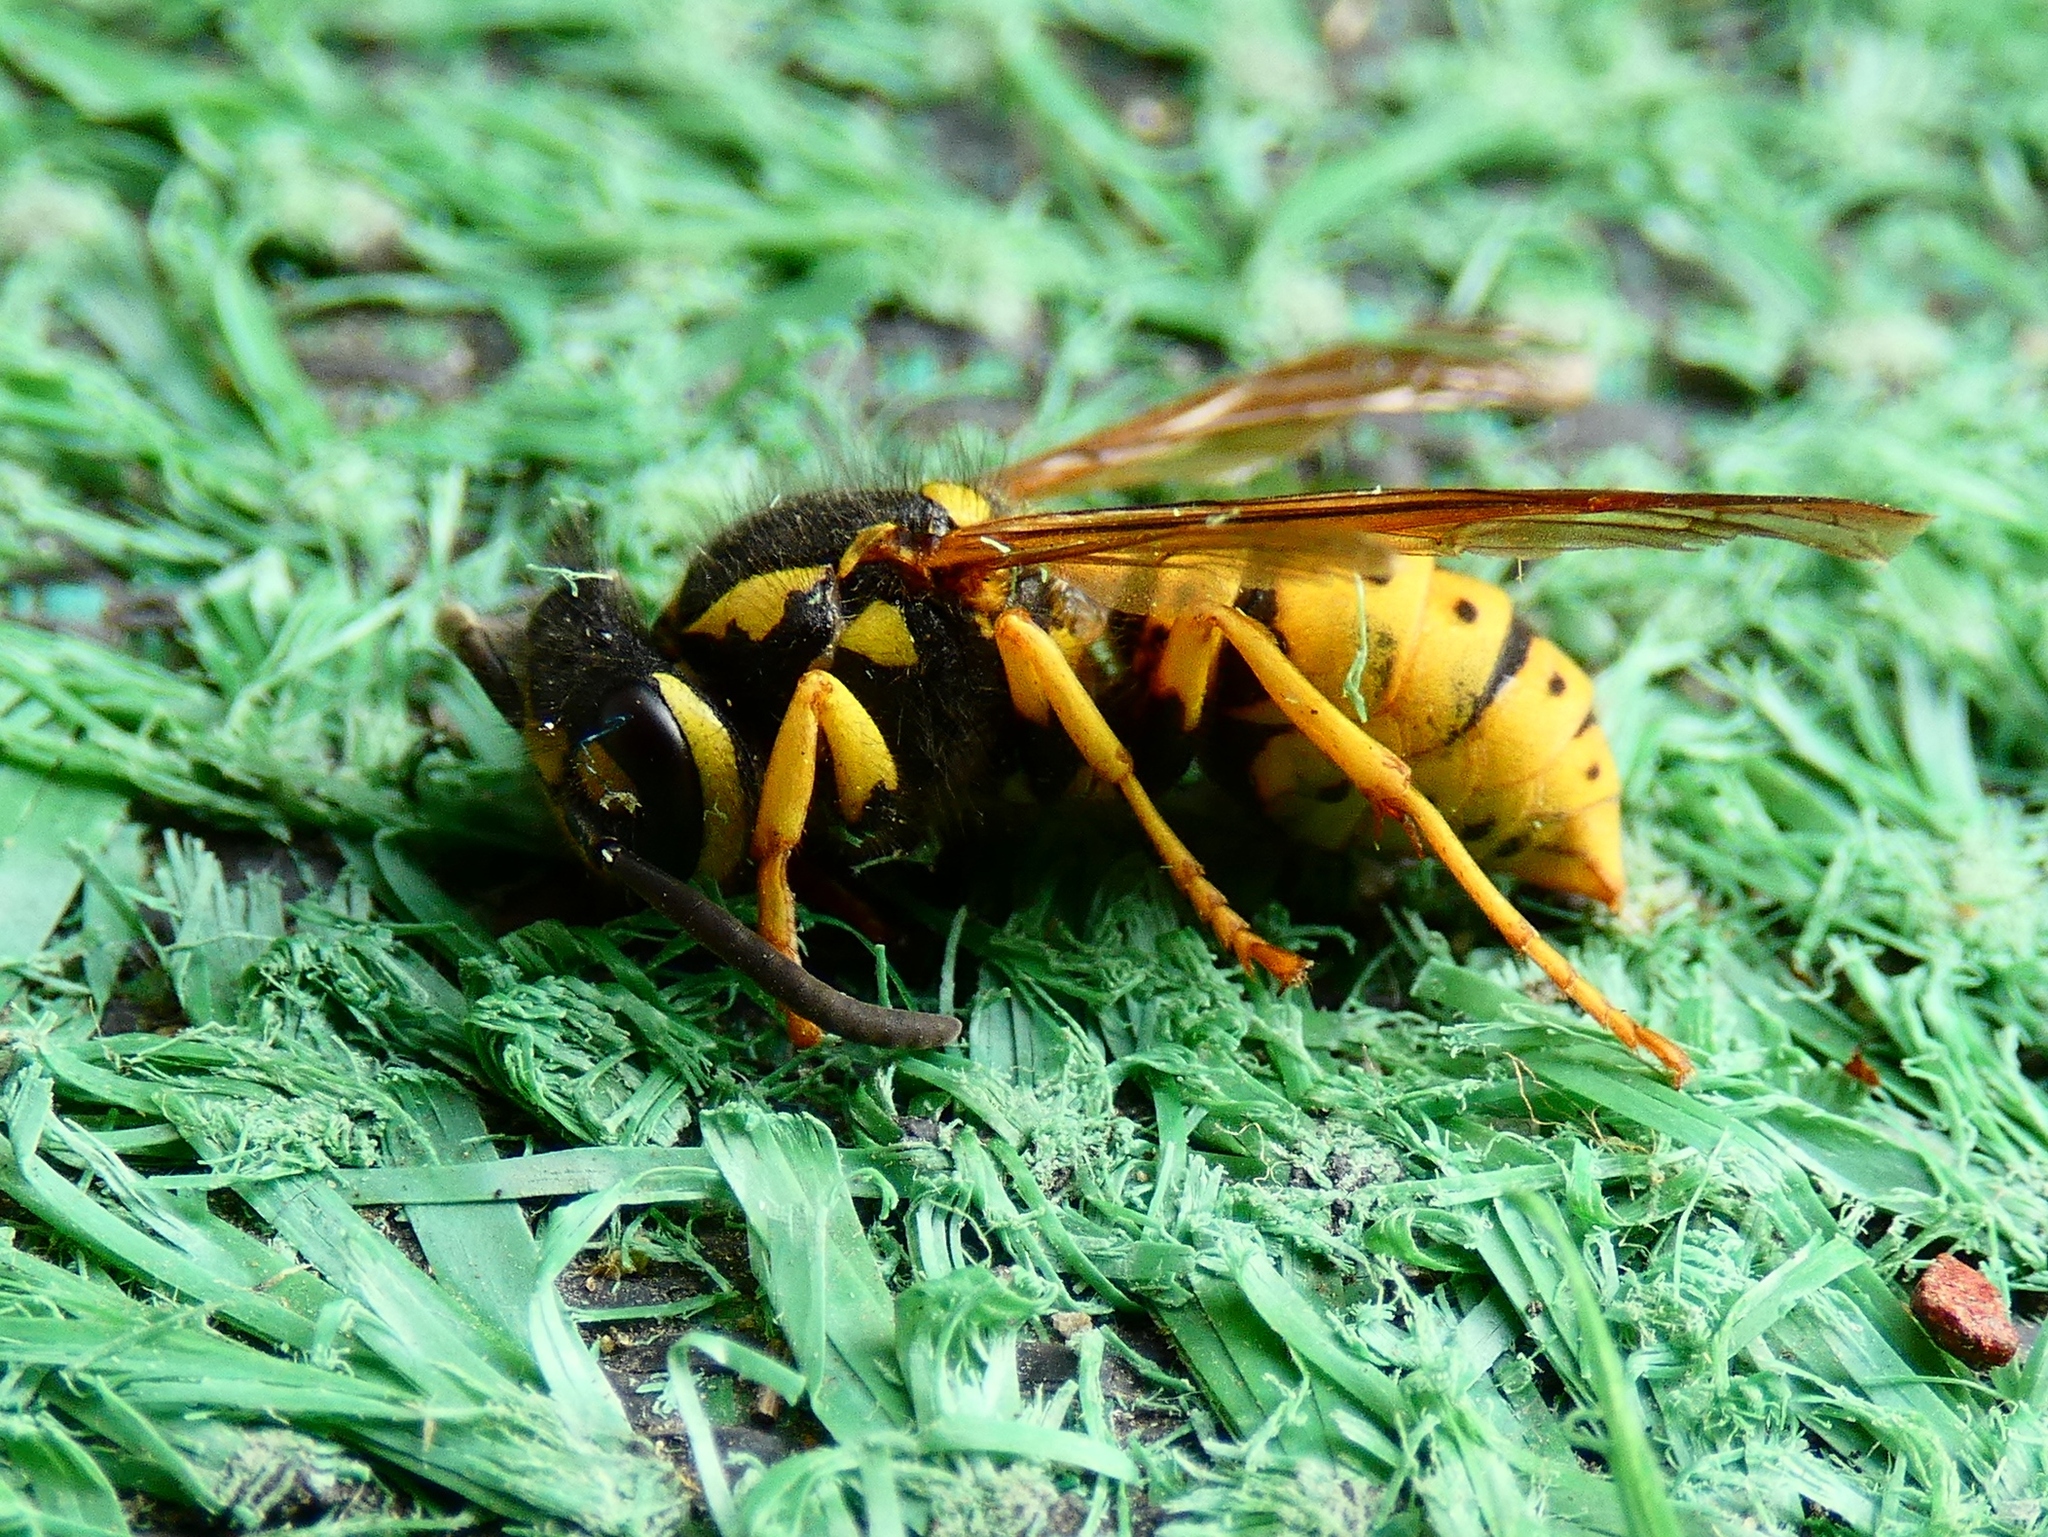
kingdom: Animalia
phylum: Arthropoda
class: Insecta
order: Hymenoptera
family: Vespidae
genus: Vespula
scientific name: Vespula germanica
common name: German wasp
